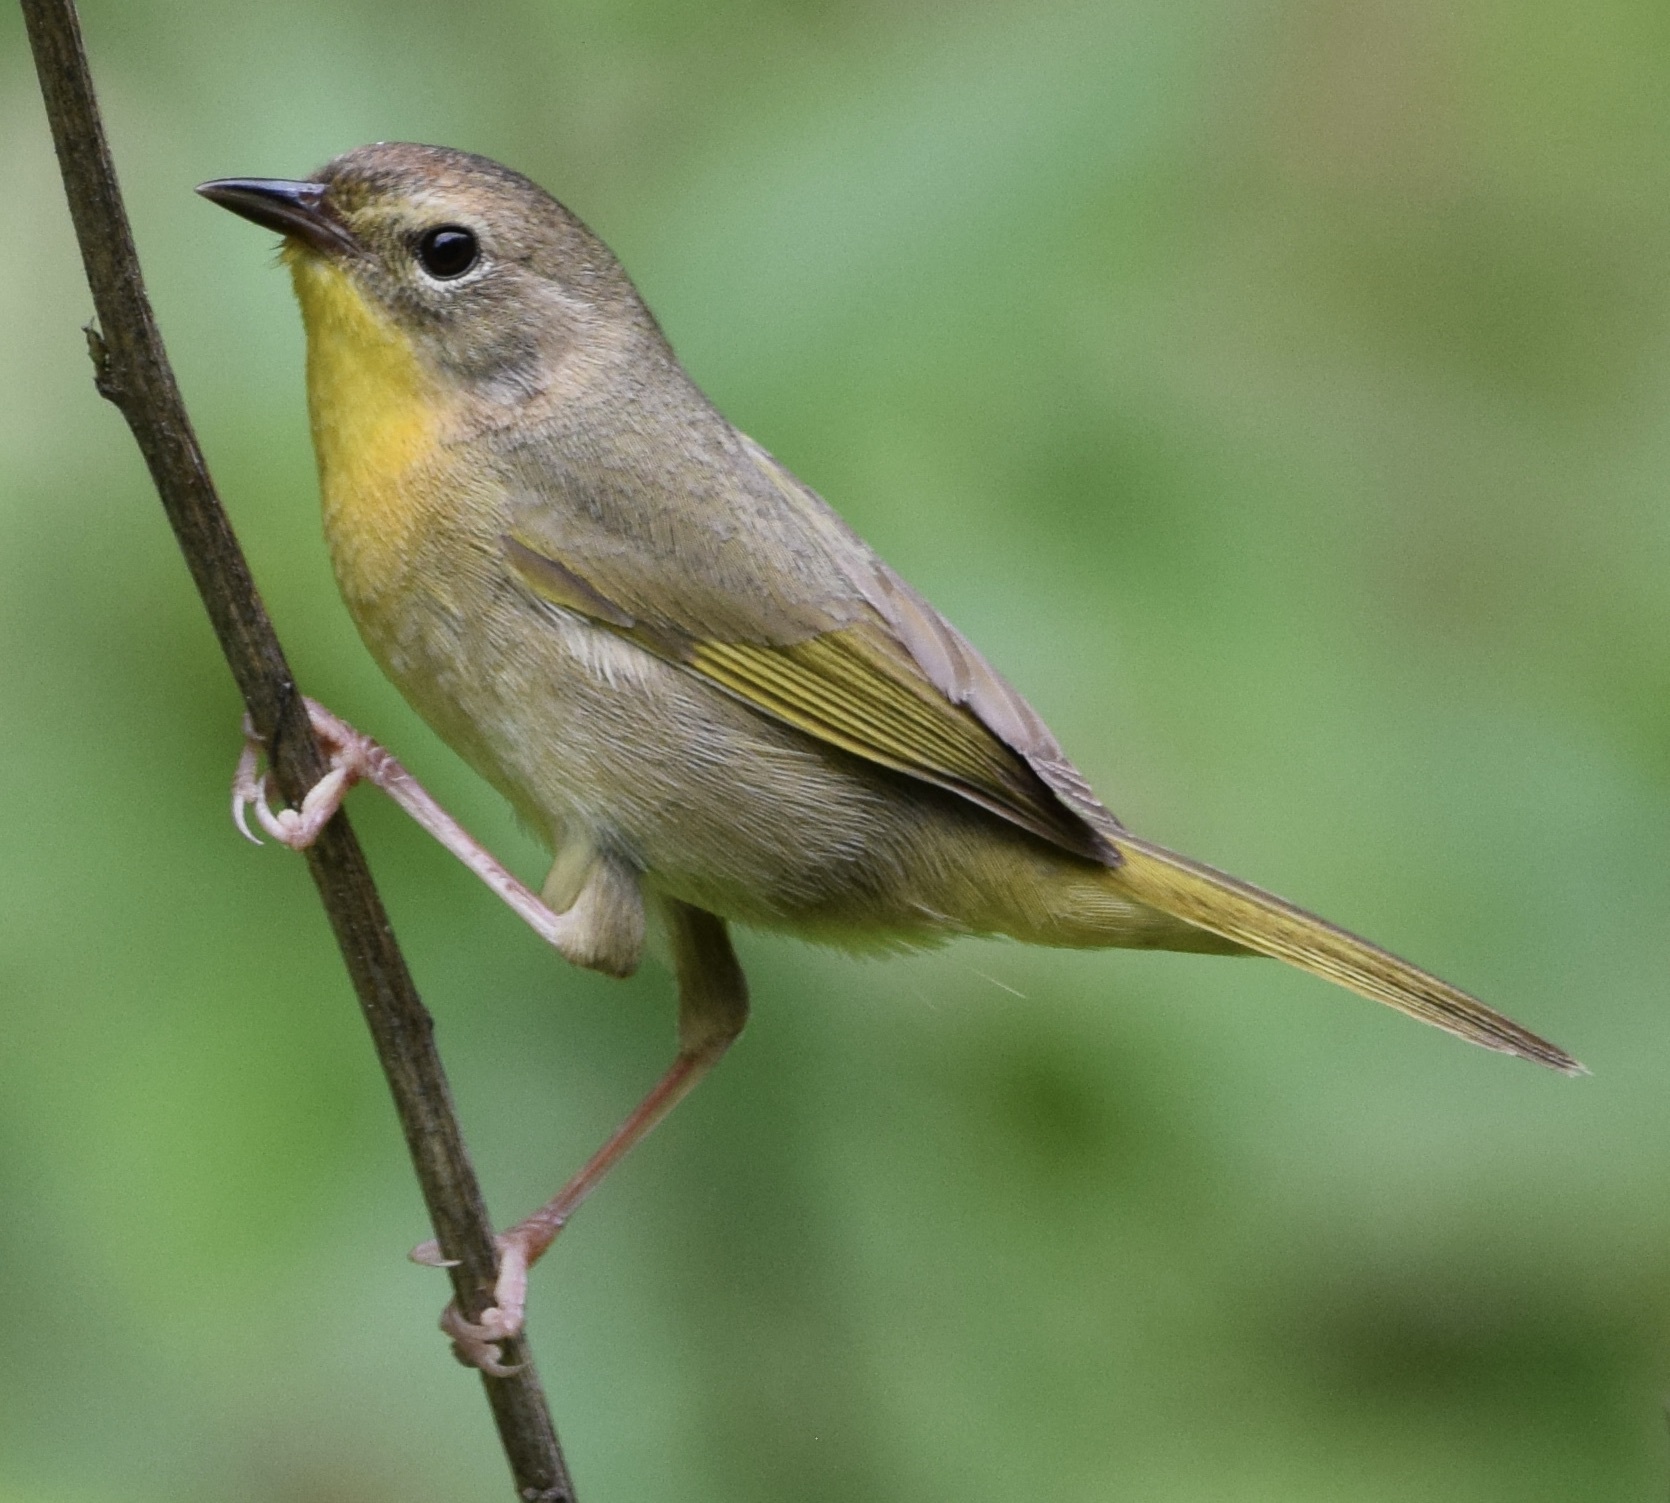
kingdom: Animalia
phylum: Chordata
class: Aves
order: Passeriformes
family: Parulidae
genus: Geothlypis
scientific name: Geothlypis trichas
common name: Common yellowthroat
